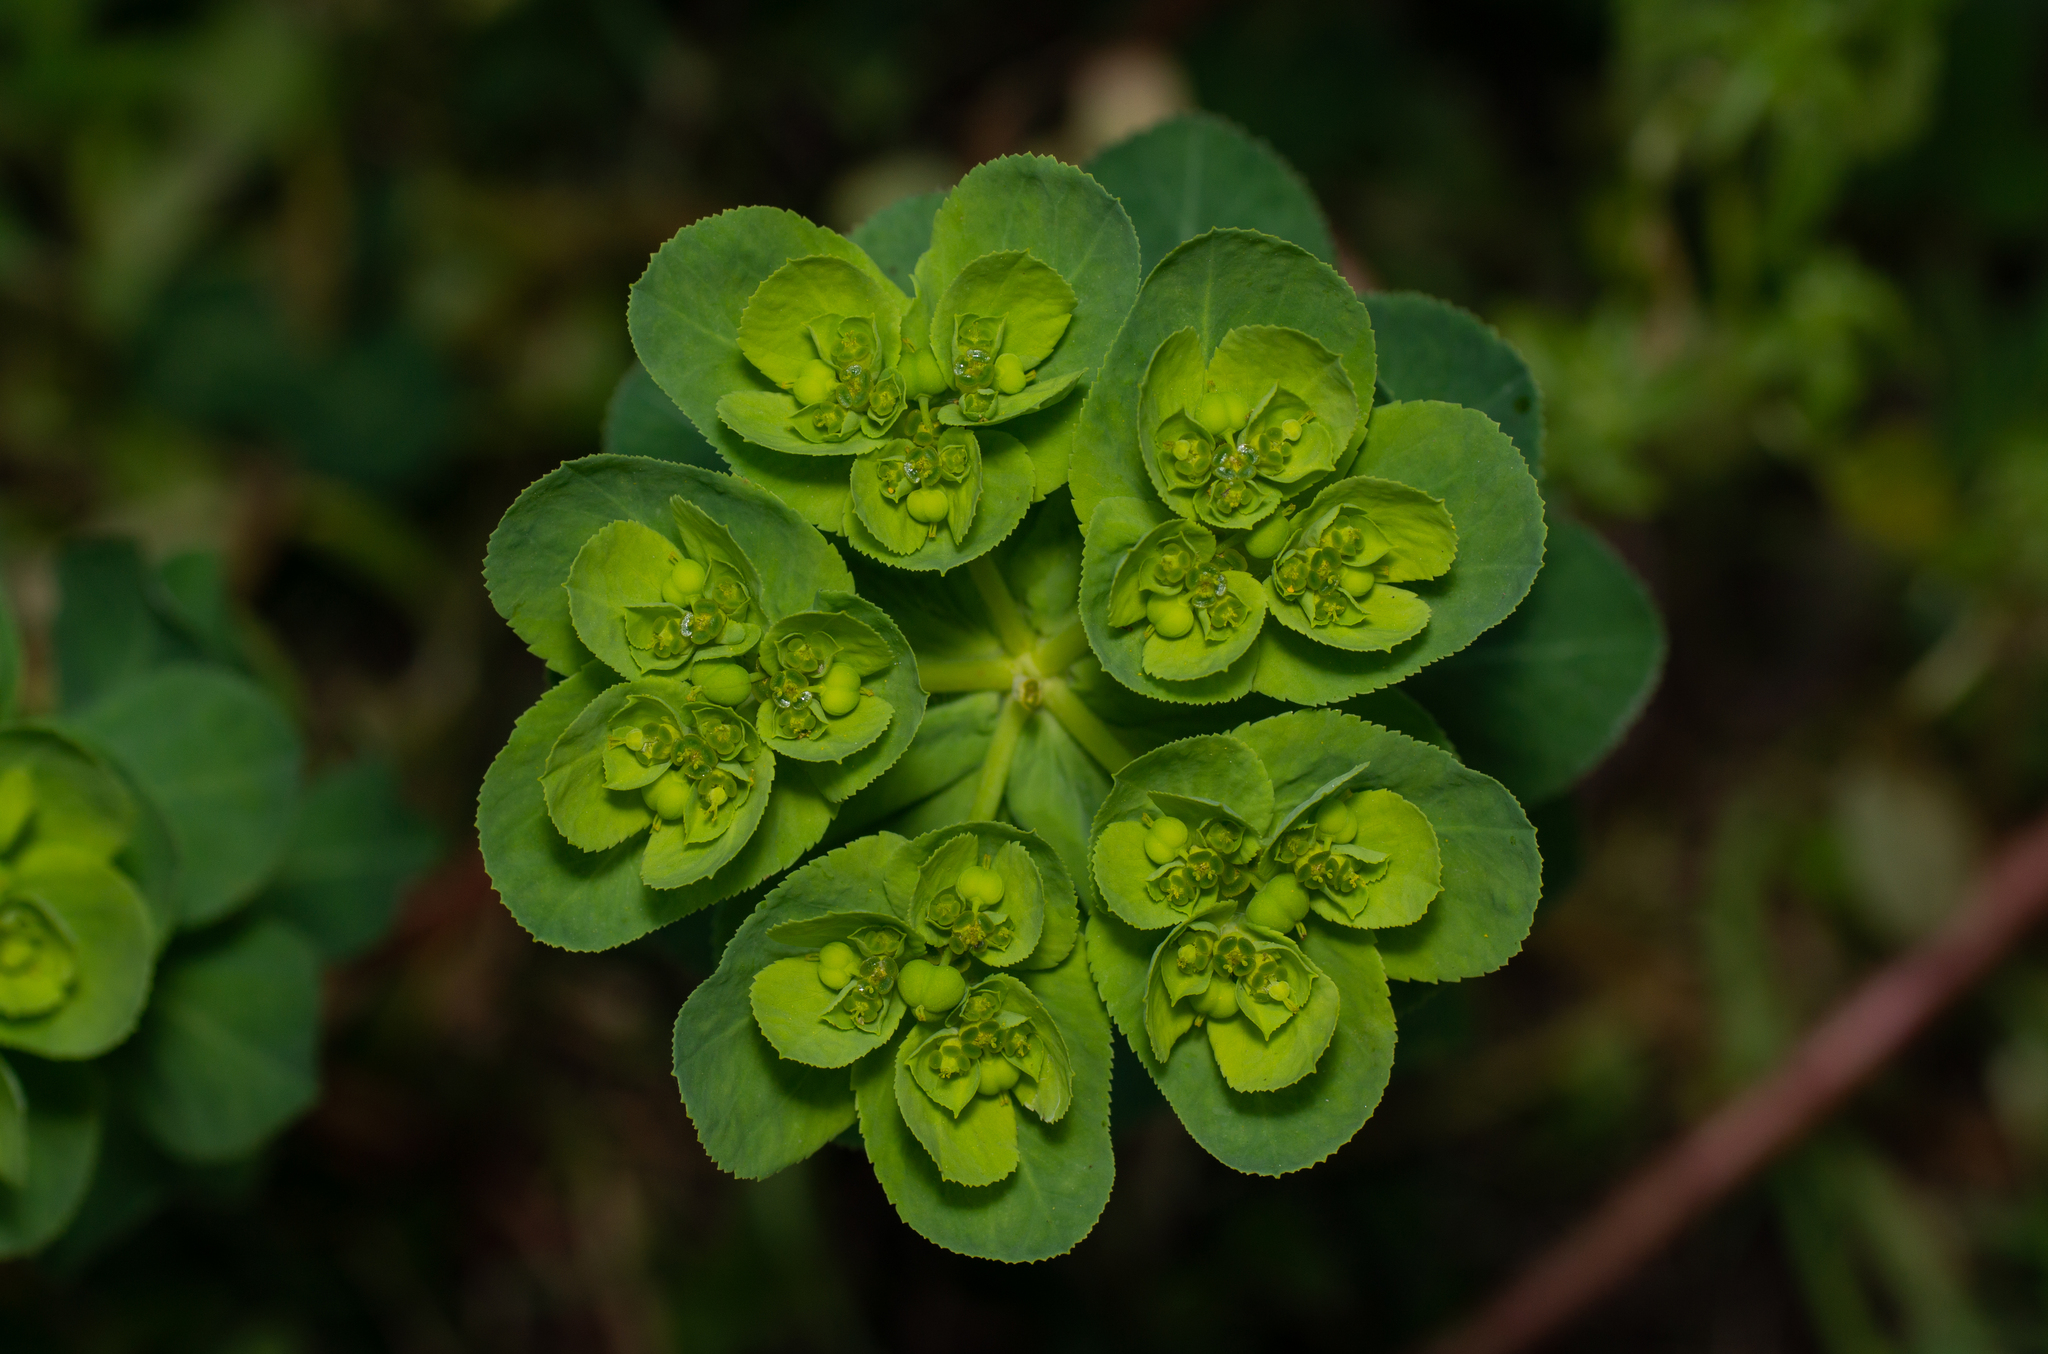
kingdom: Plantae
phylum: Tracheophyta
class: Magnoliopsida
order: Malpighiales
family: Euphorbiaceae
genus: Euphorbia
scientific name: Euphorbia helioscopia
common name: Sun spurge
